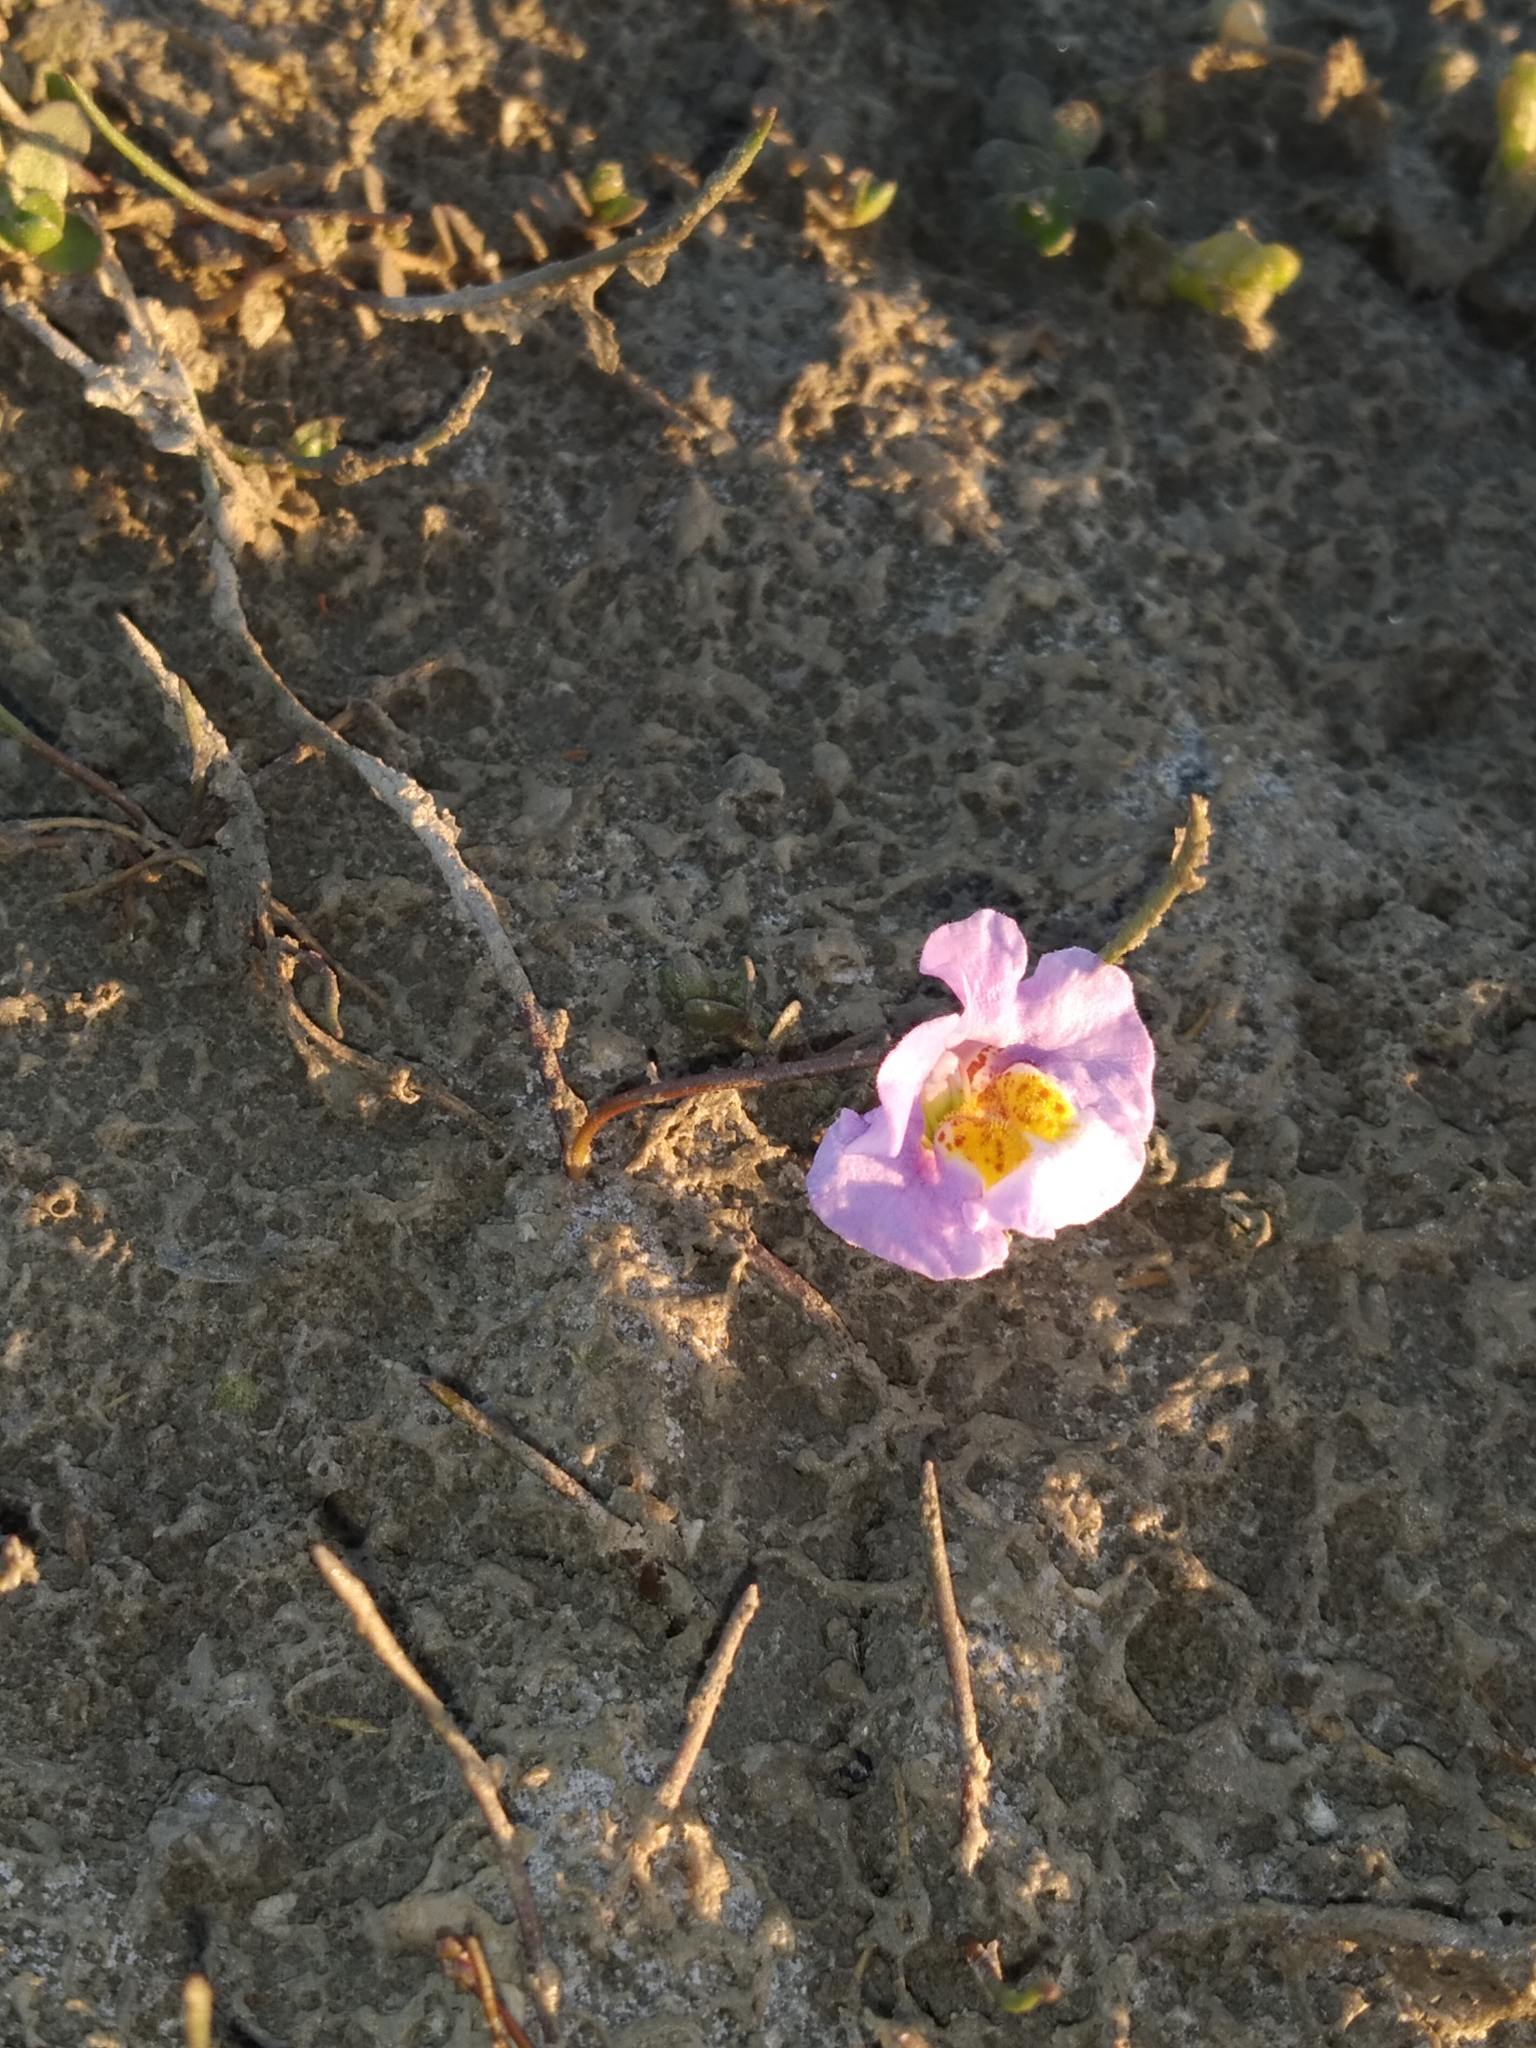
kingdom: Plantae
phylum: Tracheophyta
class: Magnoliopsida
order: Lamiales
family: Phrymaceae
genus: Thyridia
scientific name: Thyridia repens
